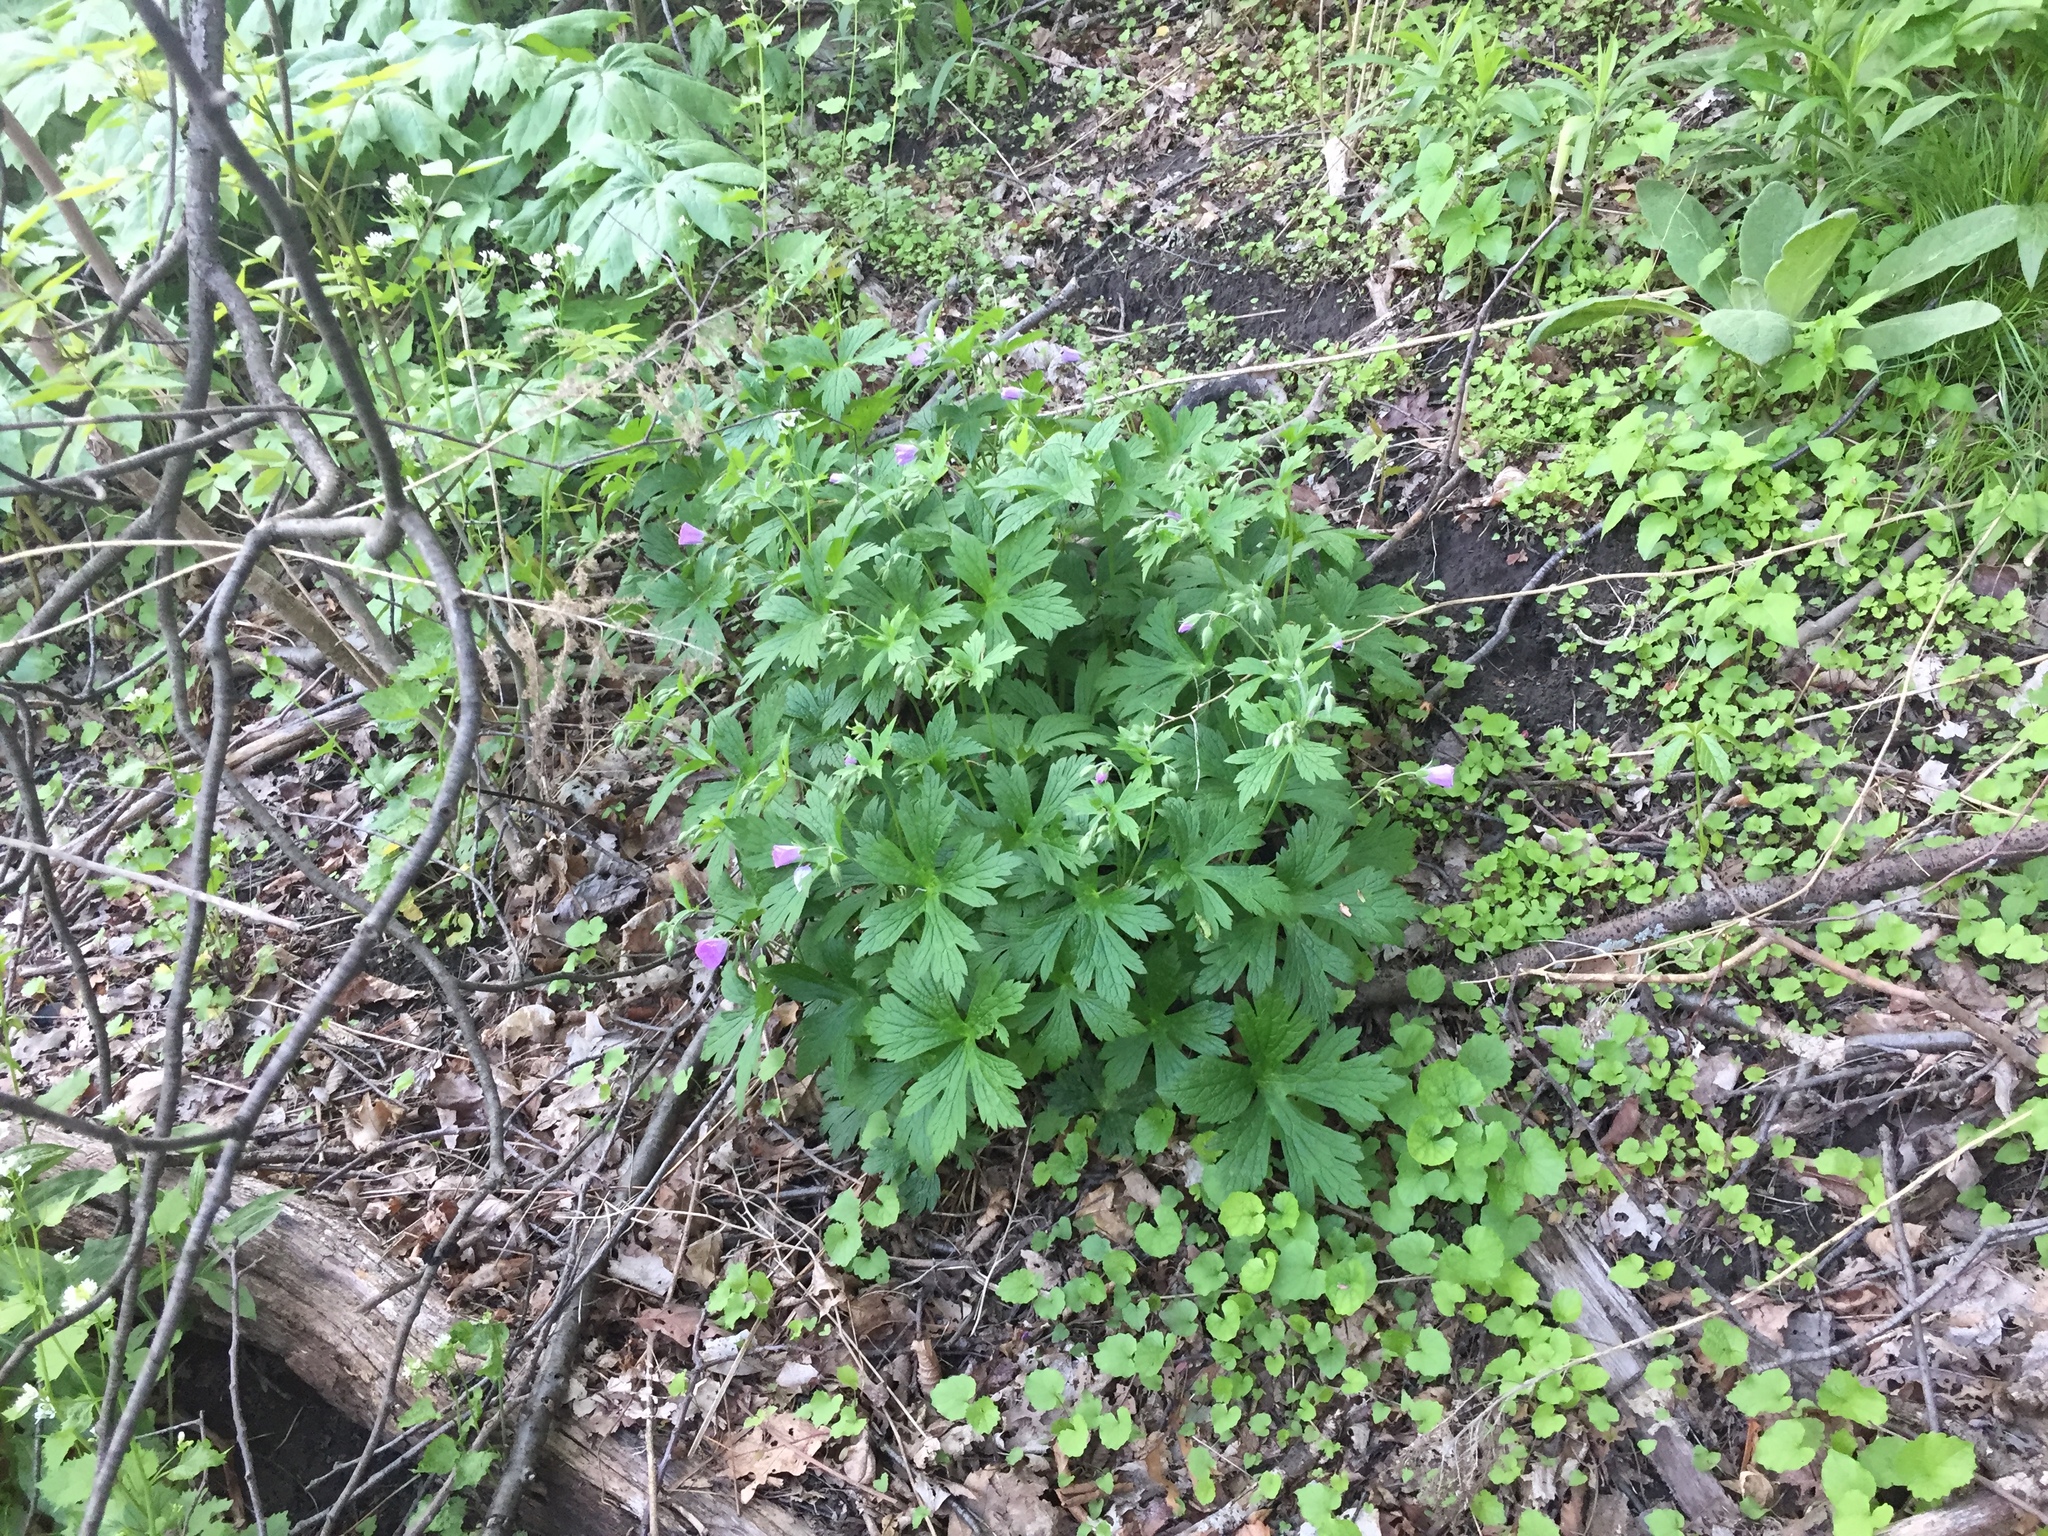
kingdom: Plantae
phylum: Tracheophyta
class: Magnoliopsida
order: Geraniales
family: Geraniaceae
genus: Geranium
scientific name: Geranium maculatum
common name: Spotted geranium
